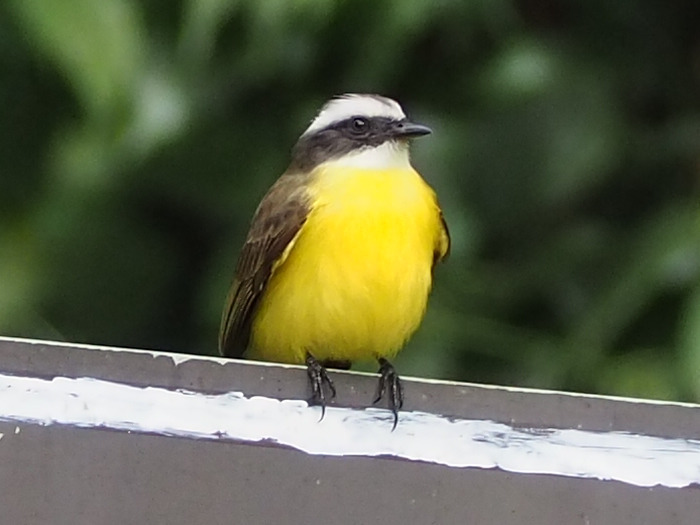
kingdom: Animalia
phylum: Chordata
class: Aves
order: Passeriformes
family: Tyrannidae
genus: Myiozetetes
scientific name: Myiozetetes similis
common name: Social flycatcher
